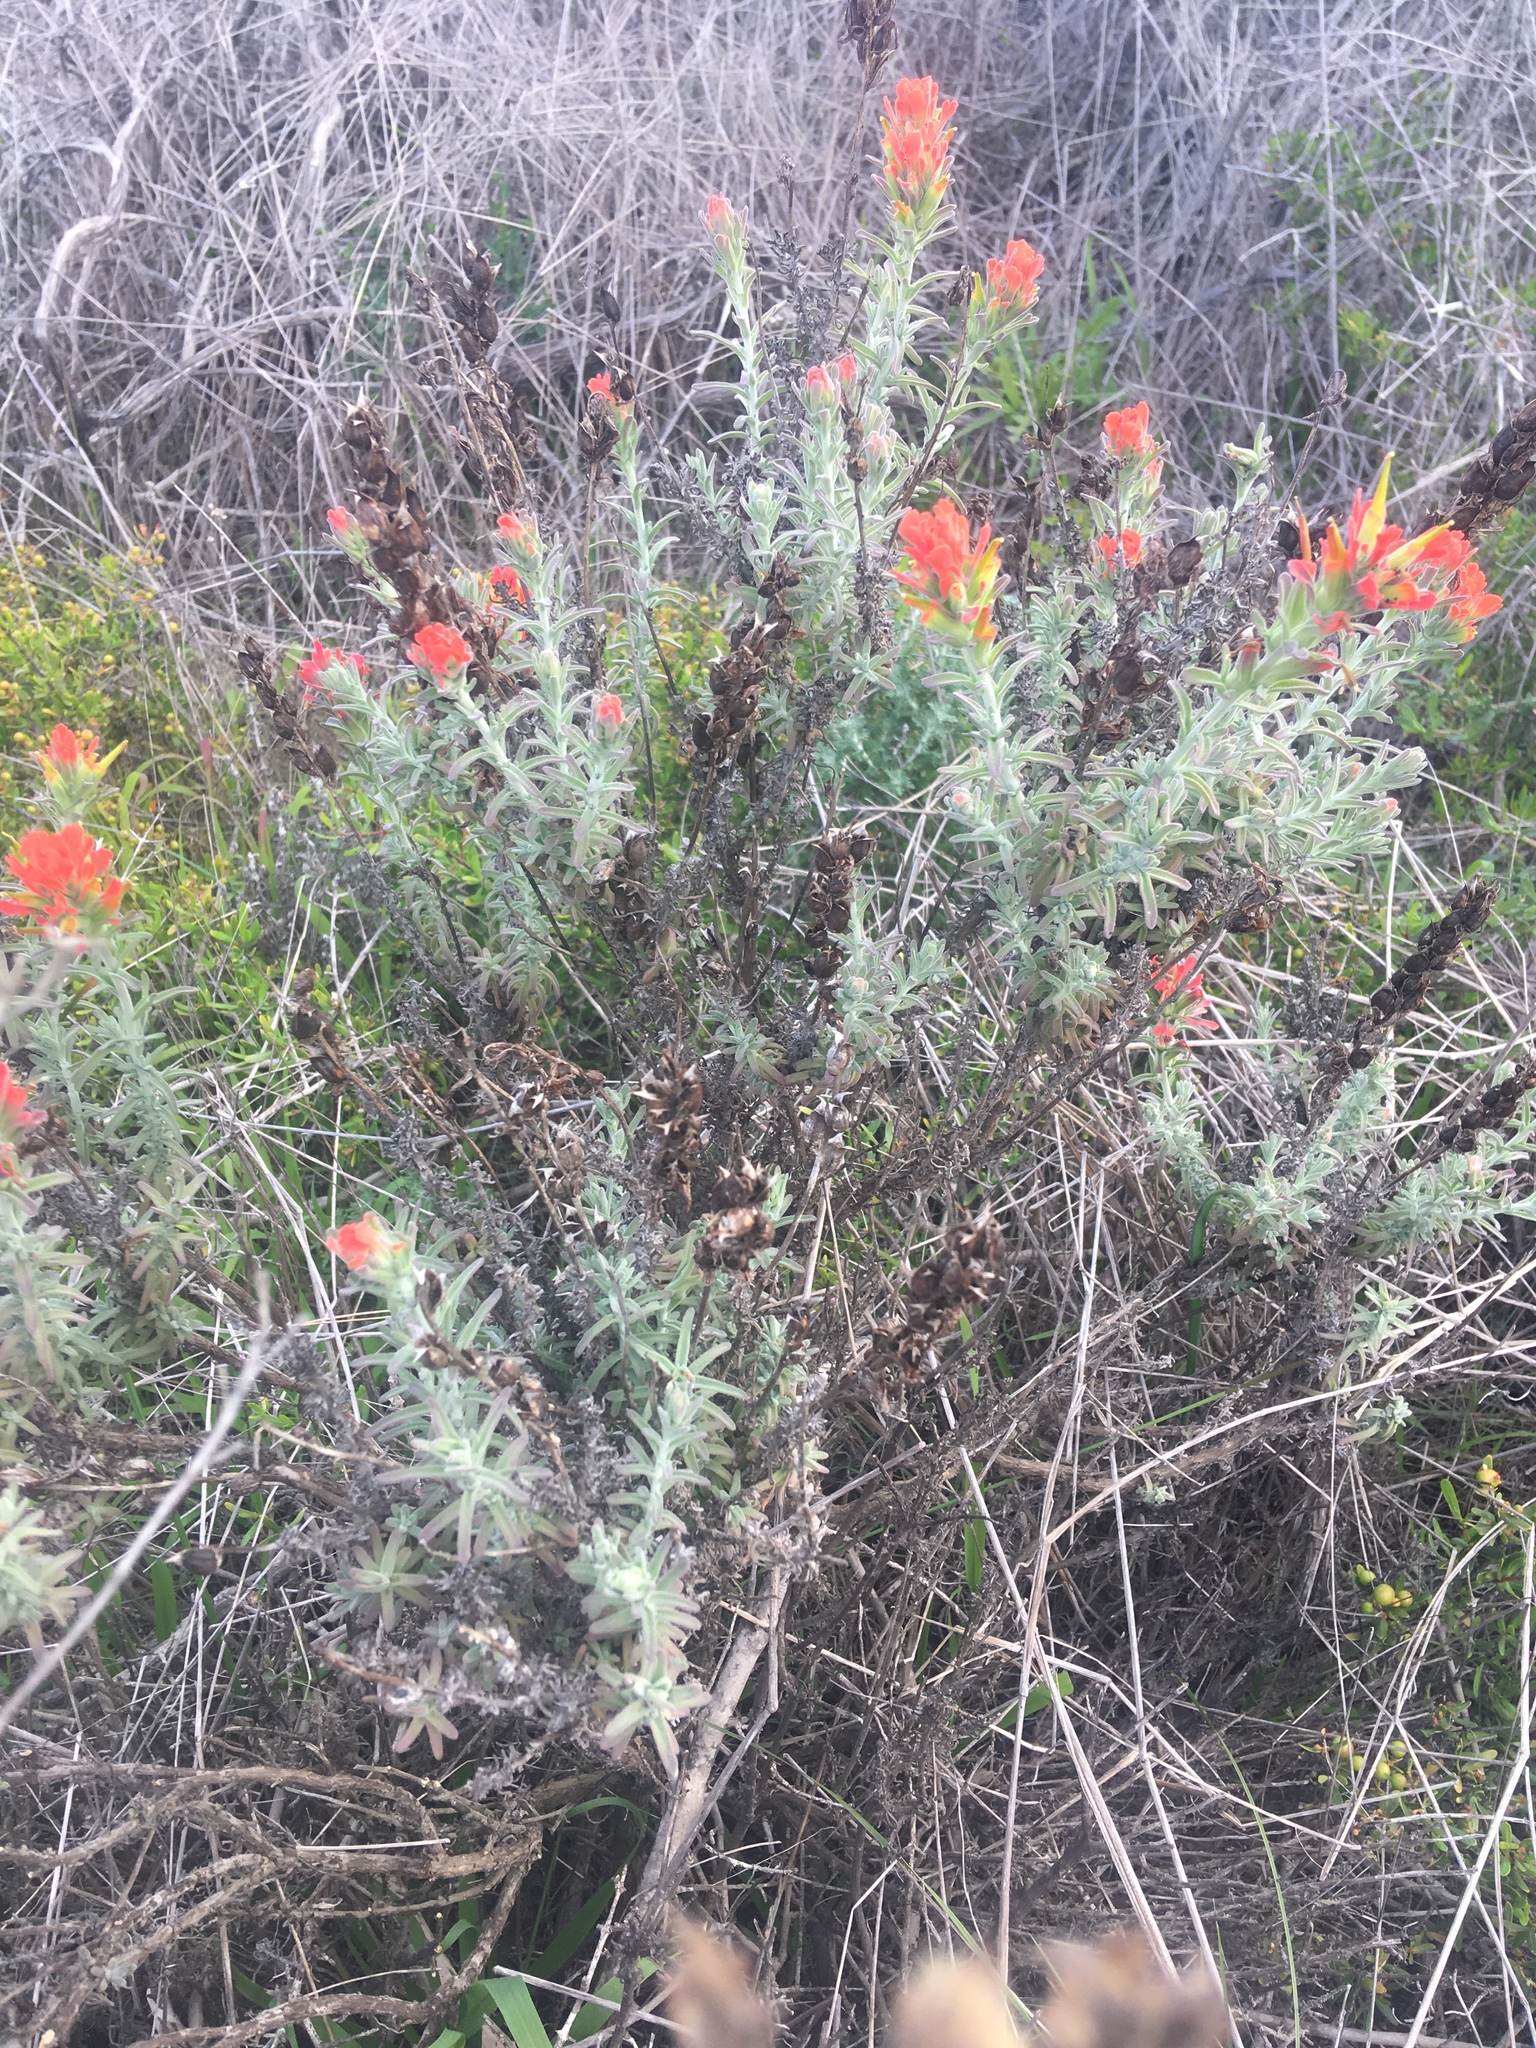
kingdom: Plantae
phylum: Tracheophyta
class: Magnoliopsida
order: Lamiales
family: Orobanchaceae
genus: Castilleja
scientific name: Castilleja foliolosa
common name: Woolly indian paintbrush
